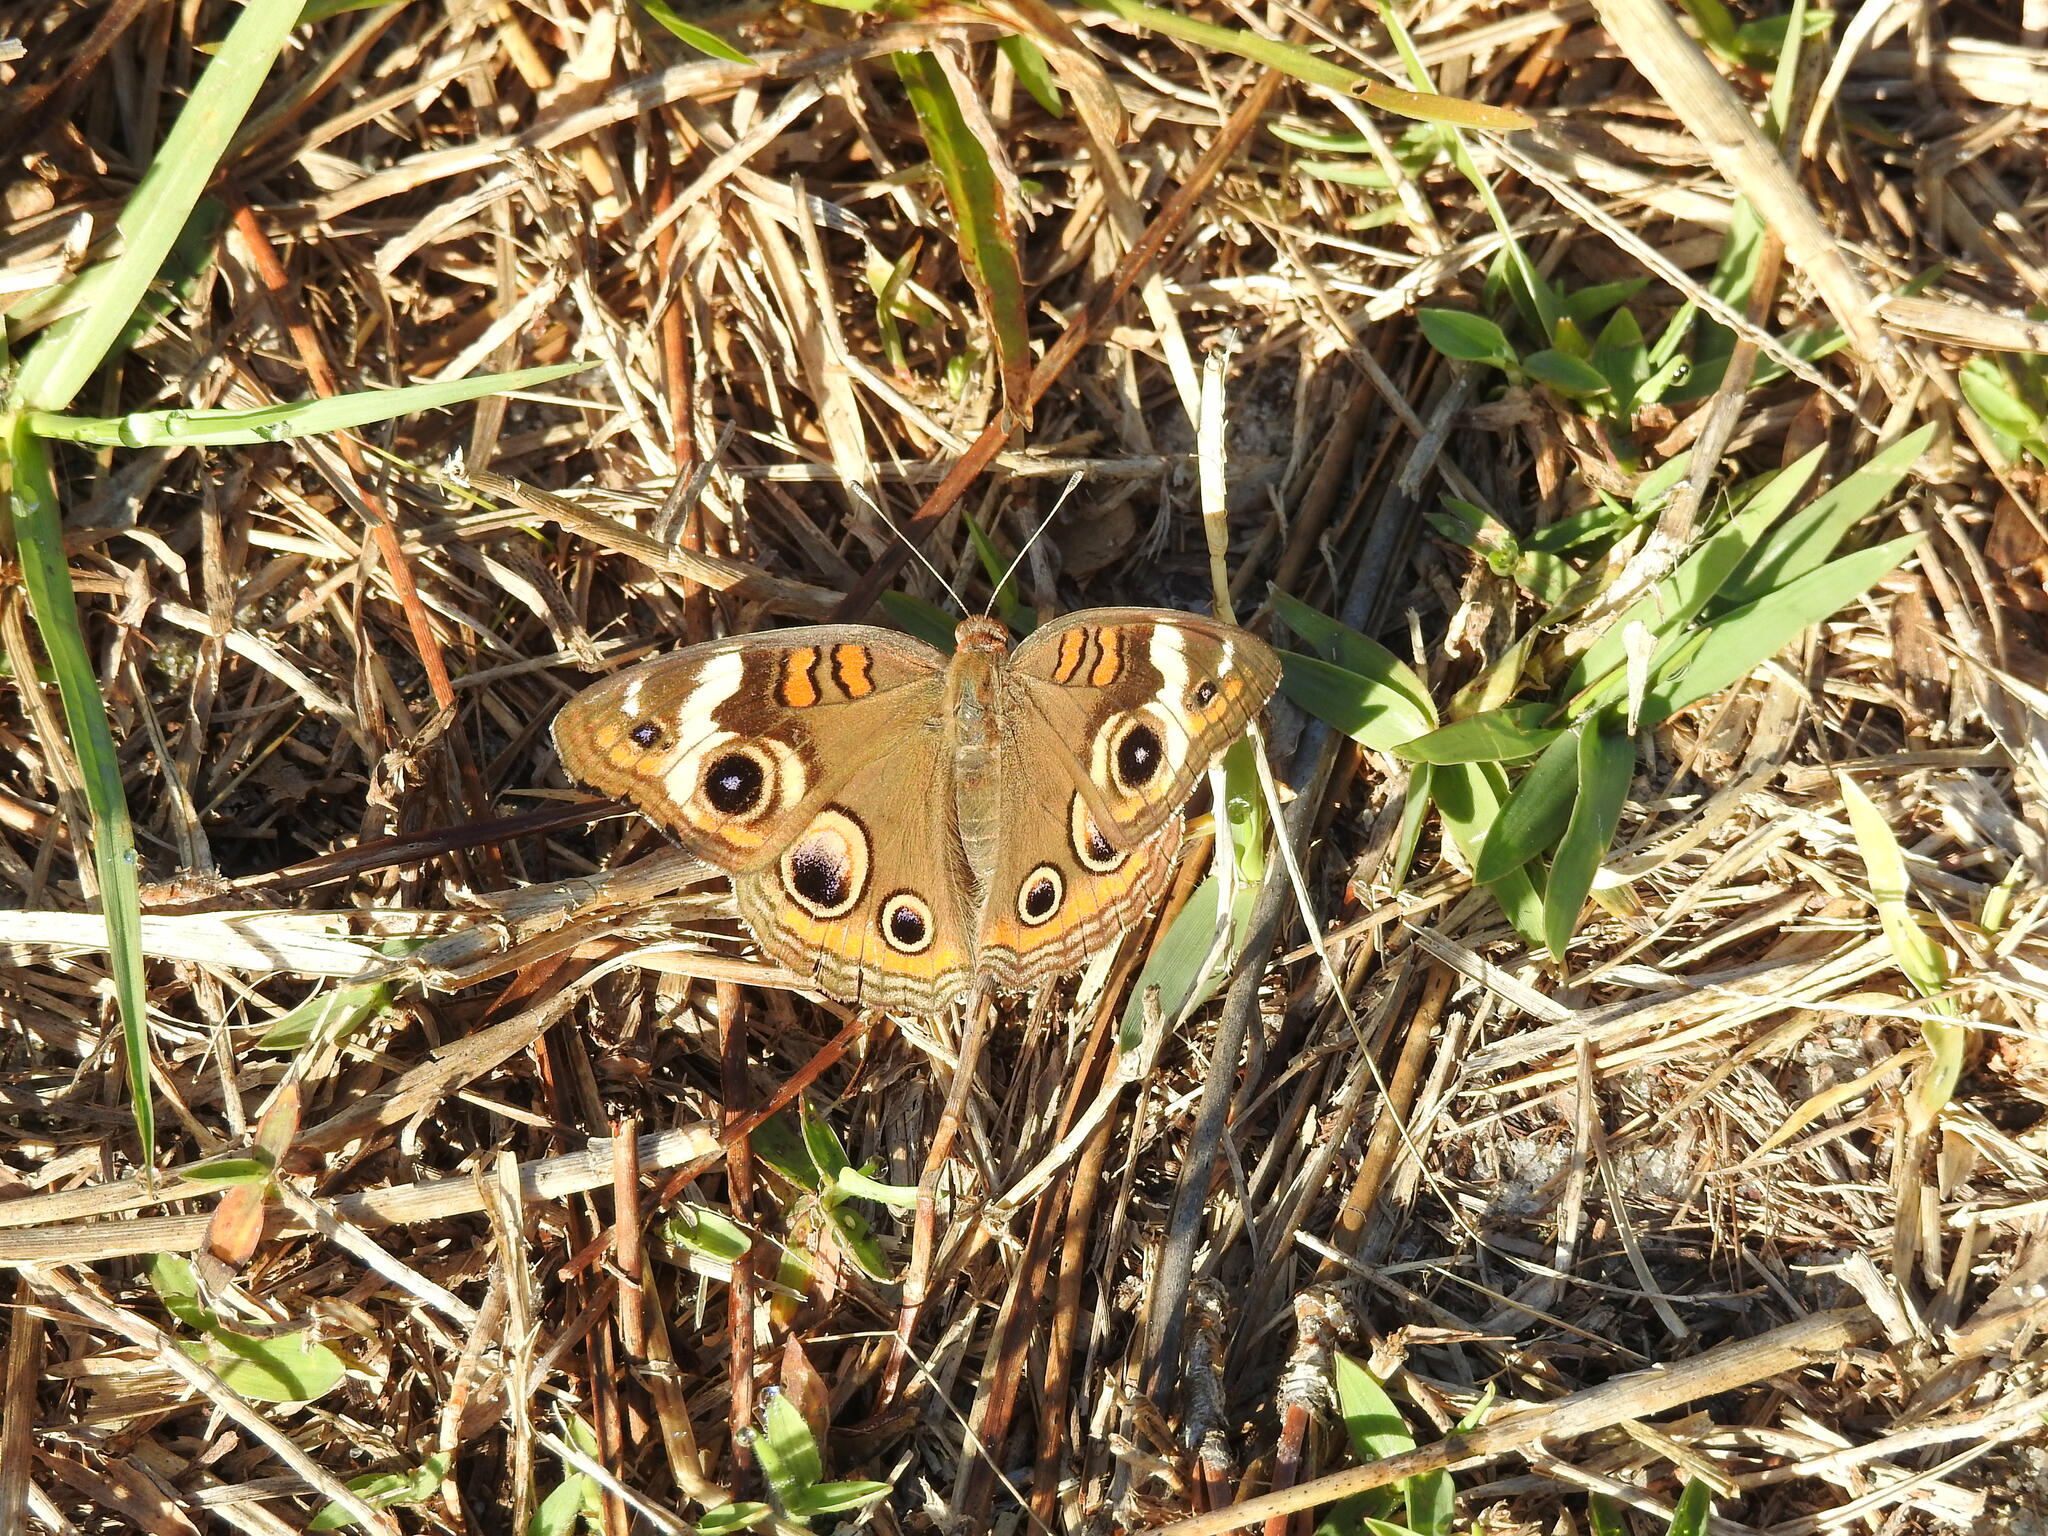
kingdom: Animalia
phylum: Arthropoda
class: Insecta
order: Lepidoptera
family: Nymphalidae
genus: Junonia
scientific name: Junonia coenia
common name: Common buckeye
